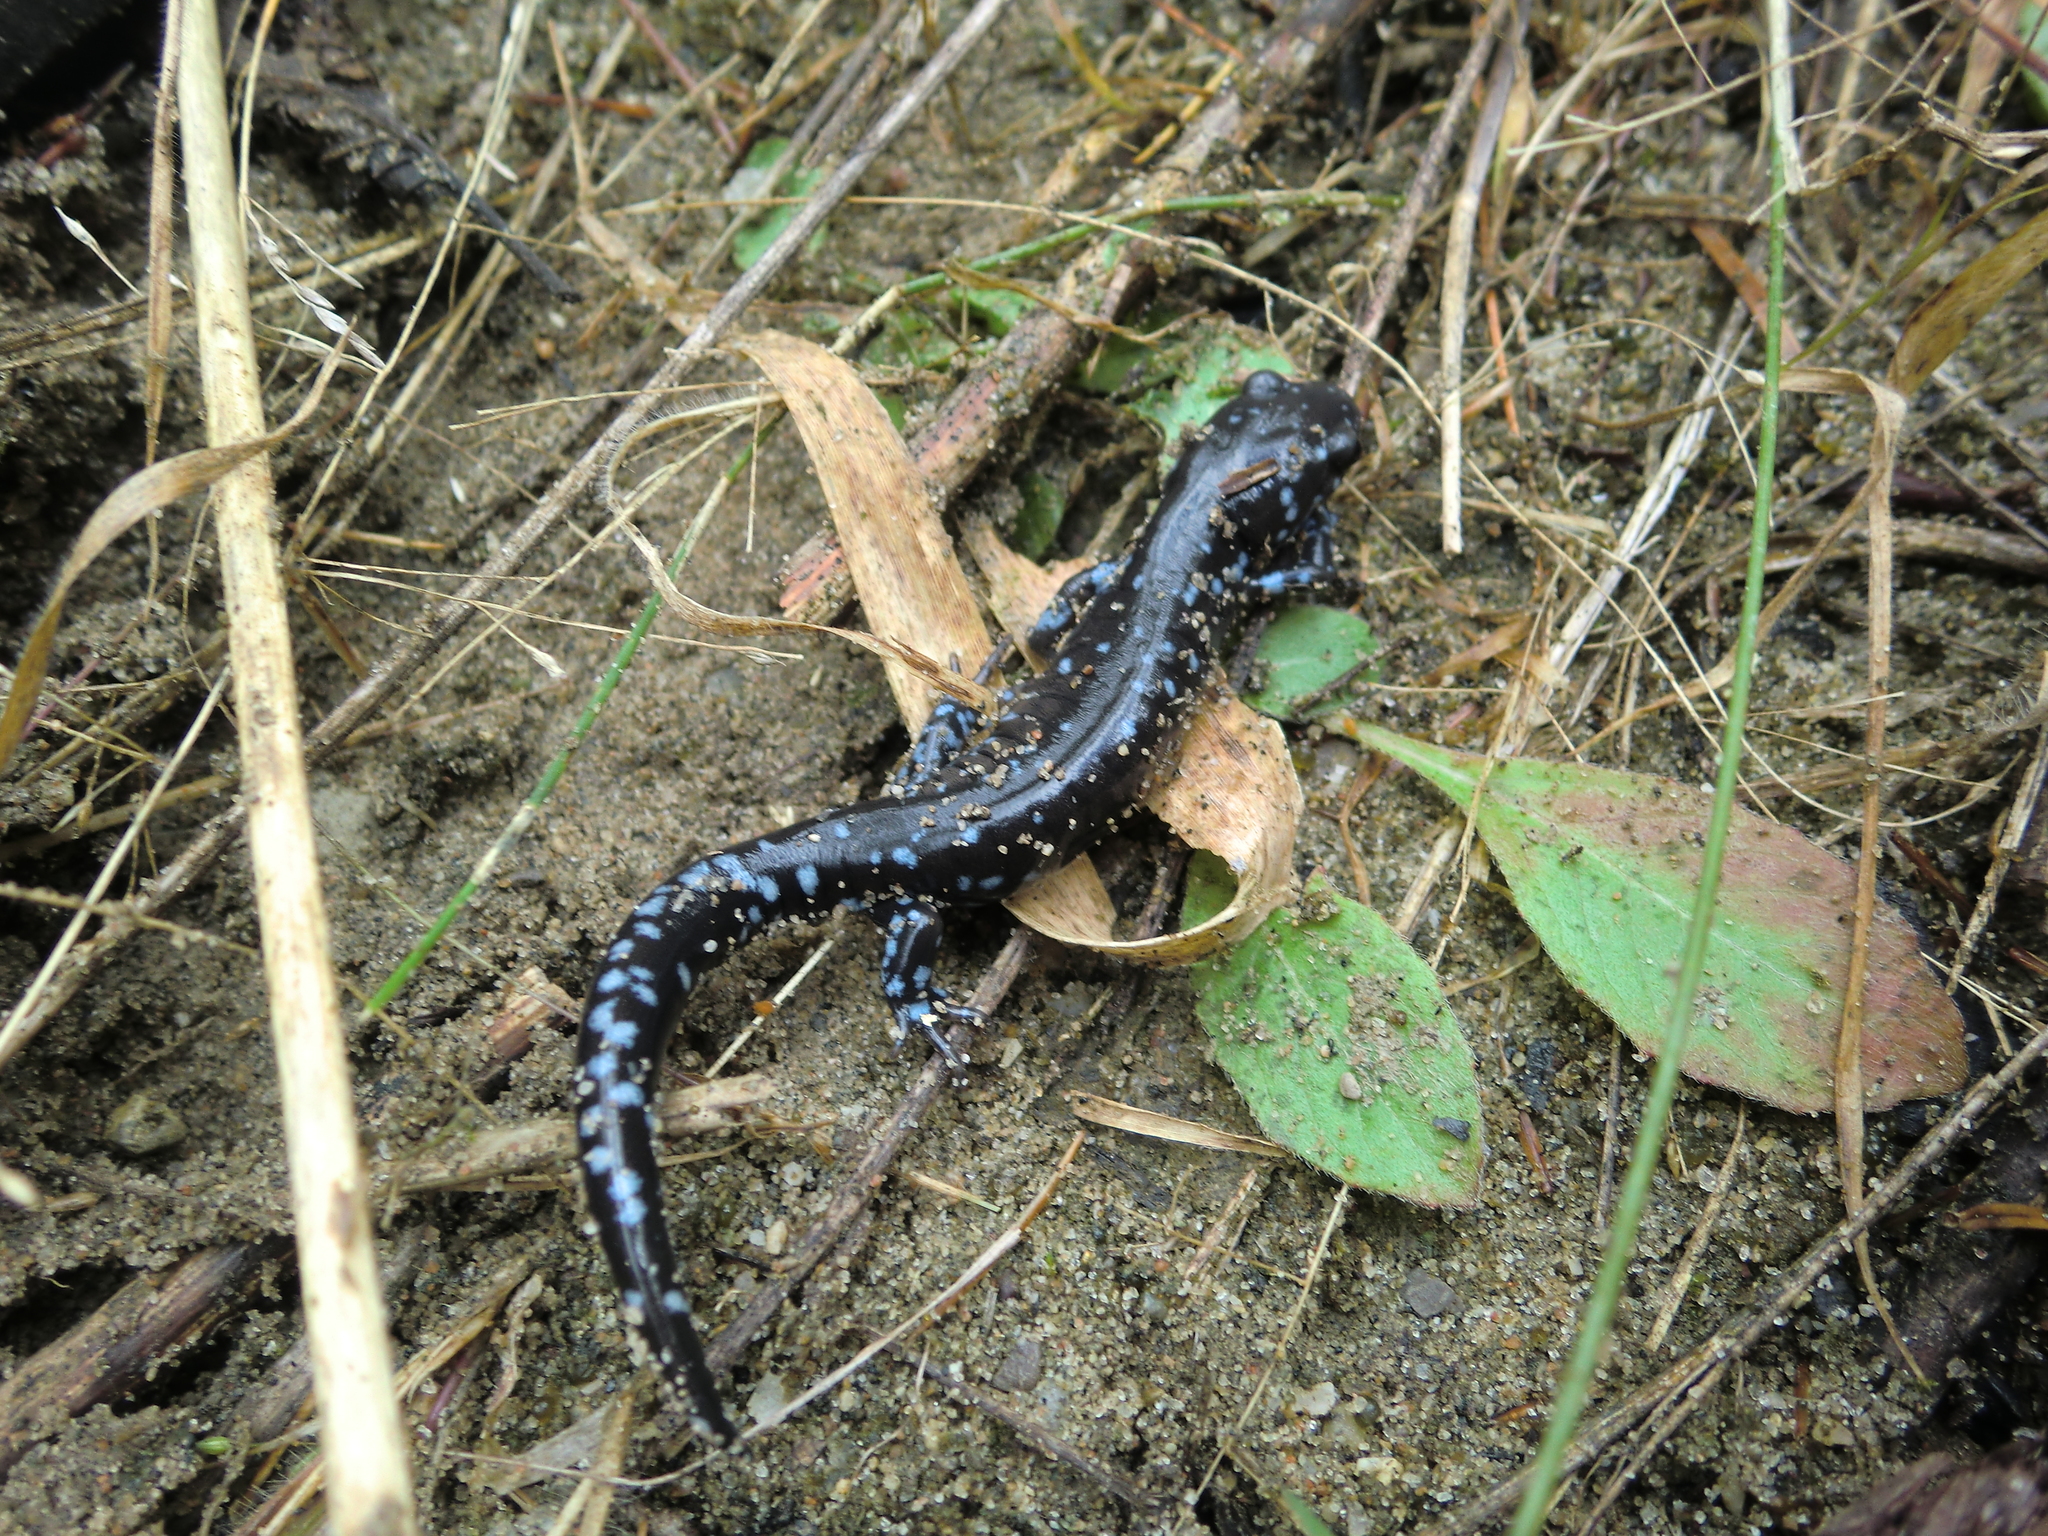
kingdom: Animalia
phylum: Chordata
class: Amphibia
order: Caudata
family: Ambystomatidae
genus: Ambystoma
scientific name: Ambystoma laterale
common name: Blue-spotted salamander
